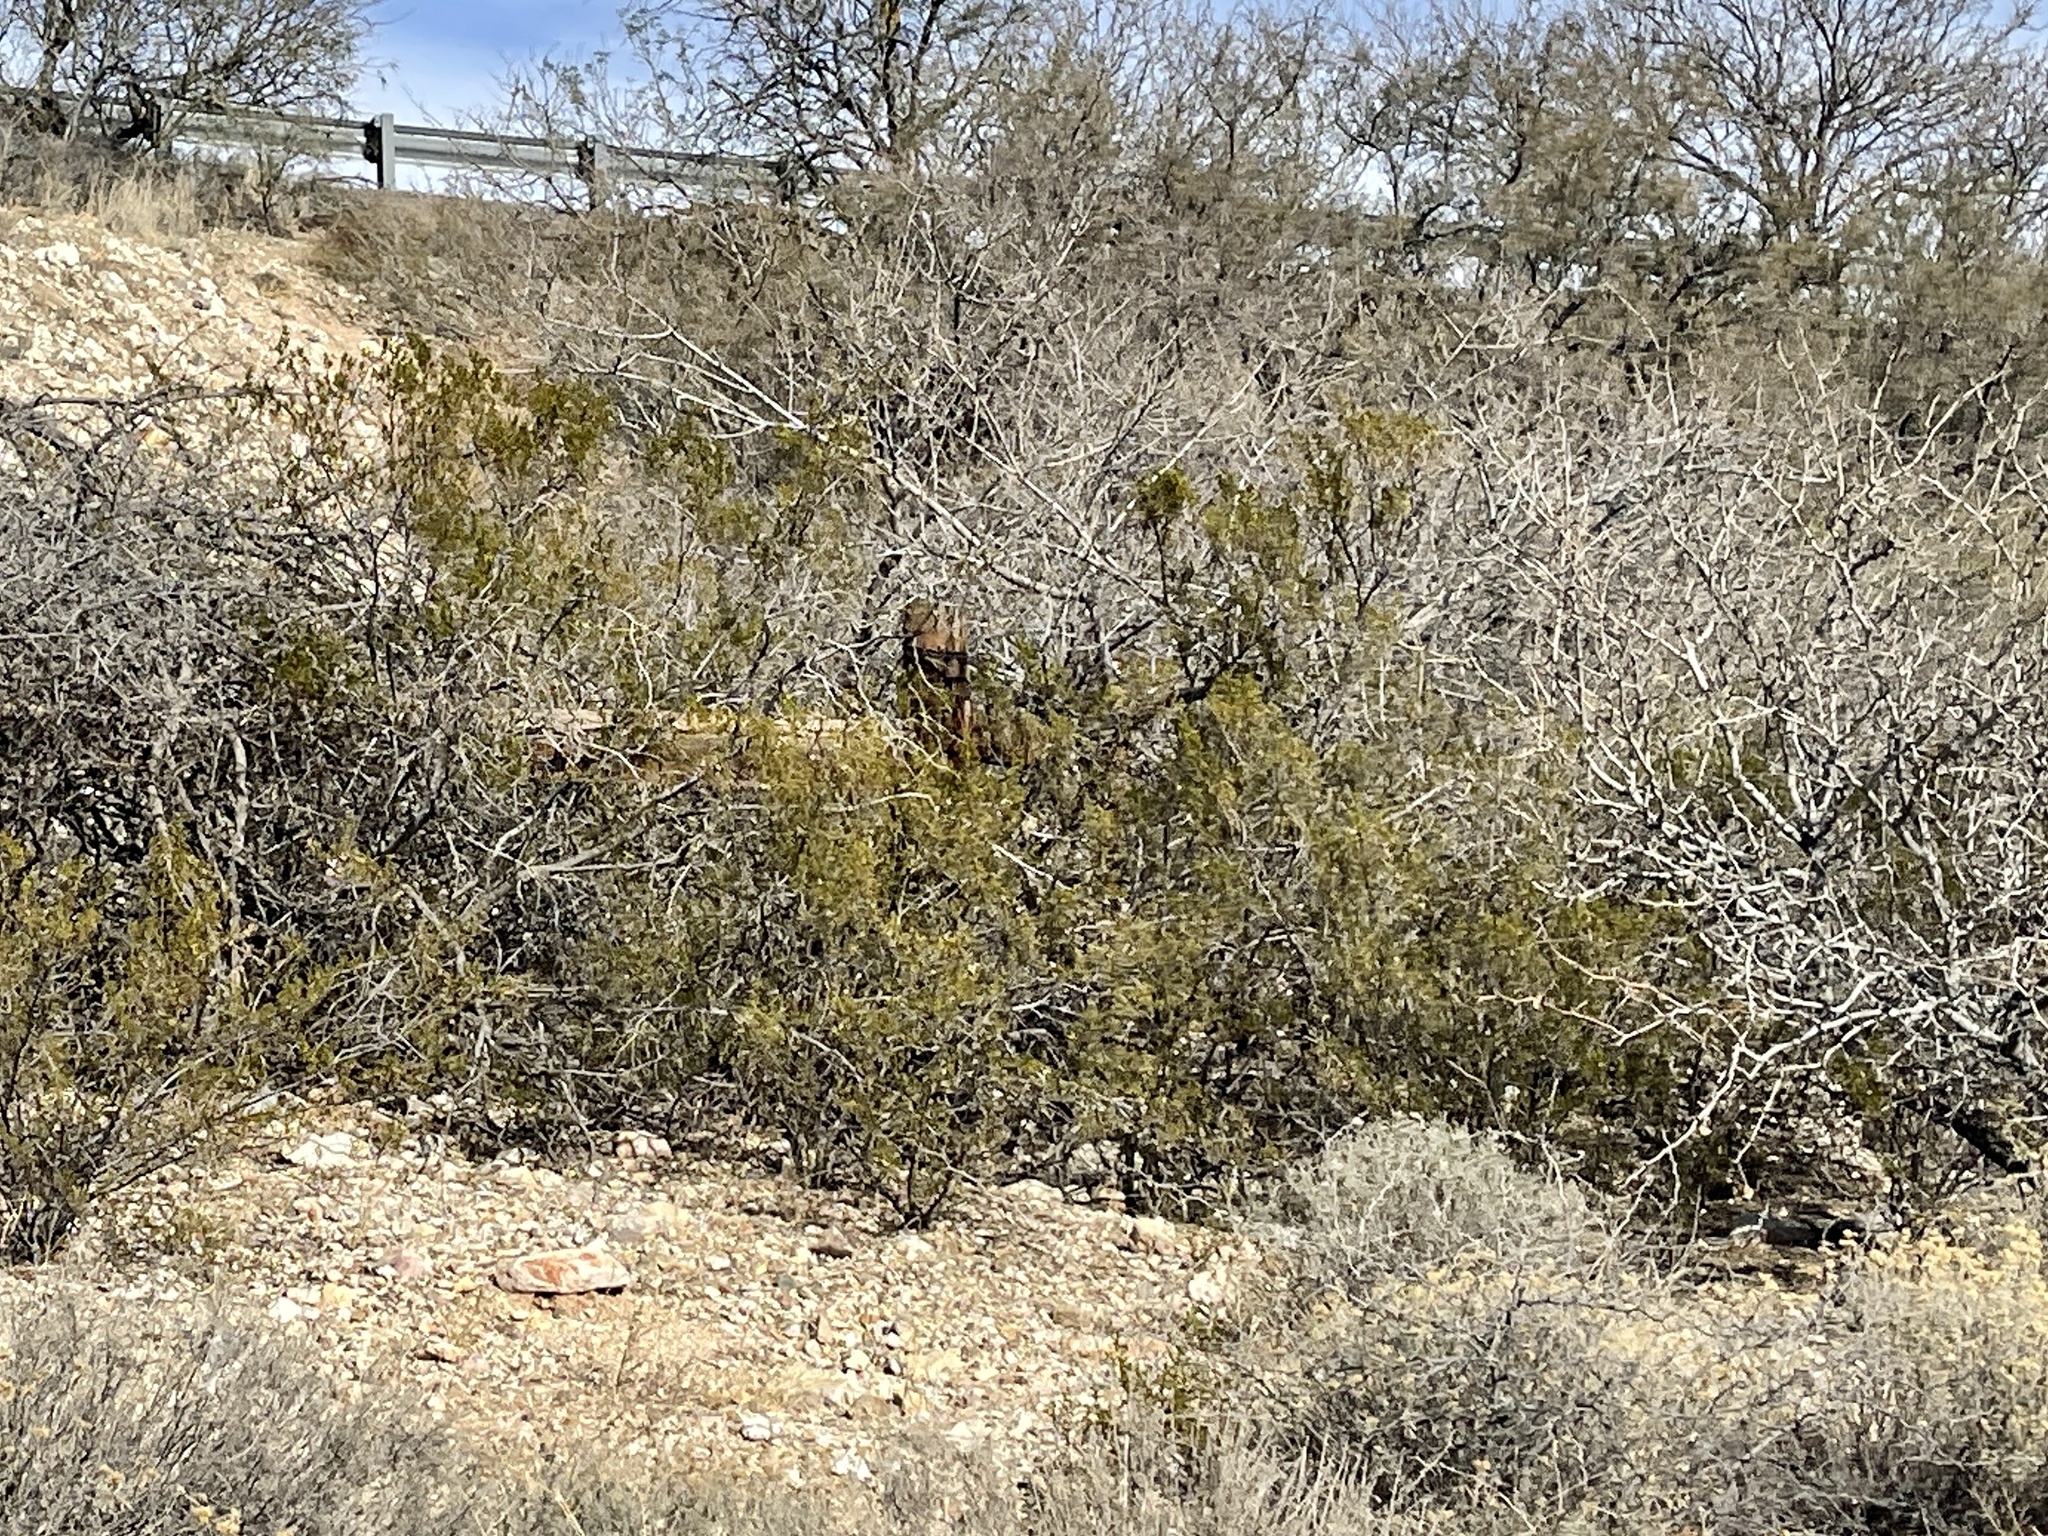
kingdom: Plantae
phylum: Tracheophyta
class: Magnoliopsida
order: Zygophyllales
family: Zygophyllaceae
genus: Larrea
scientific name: Larrea tridentata
